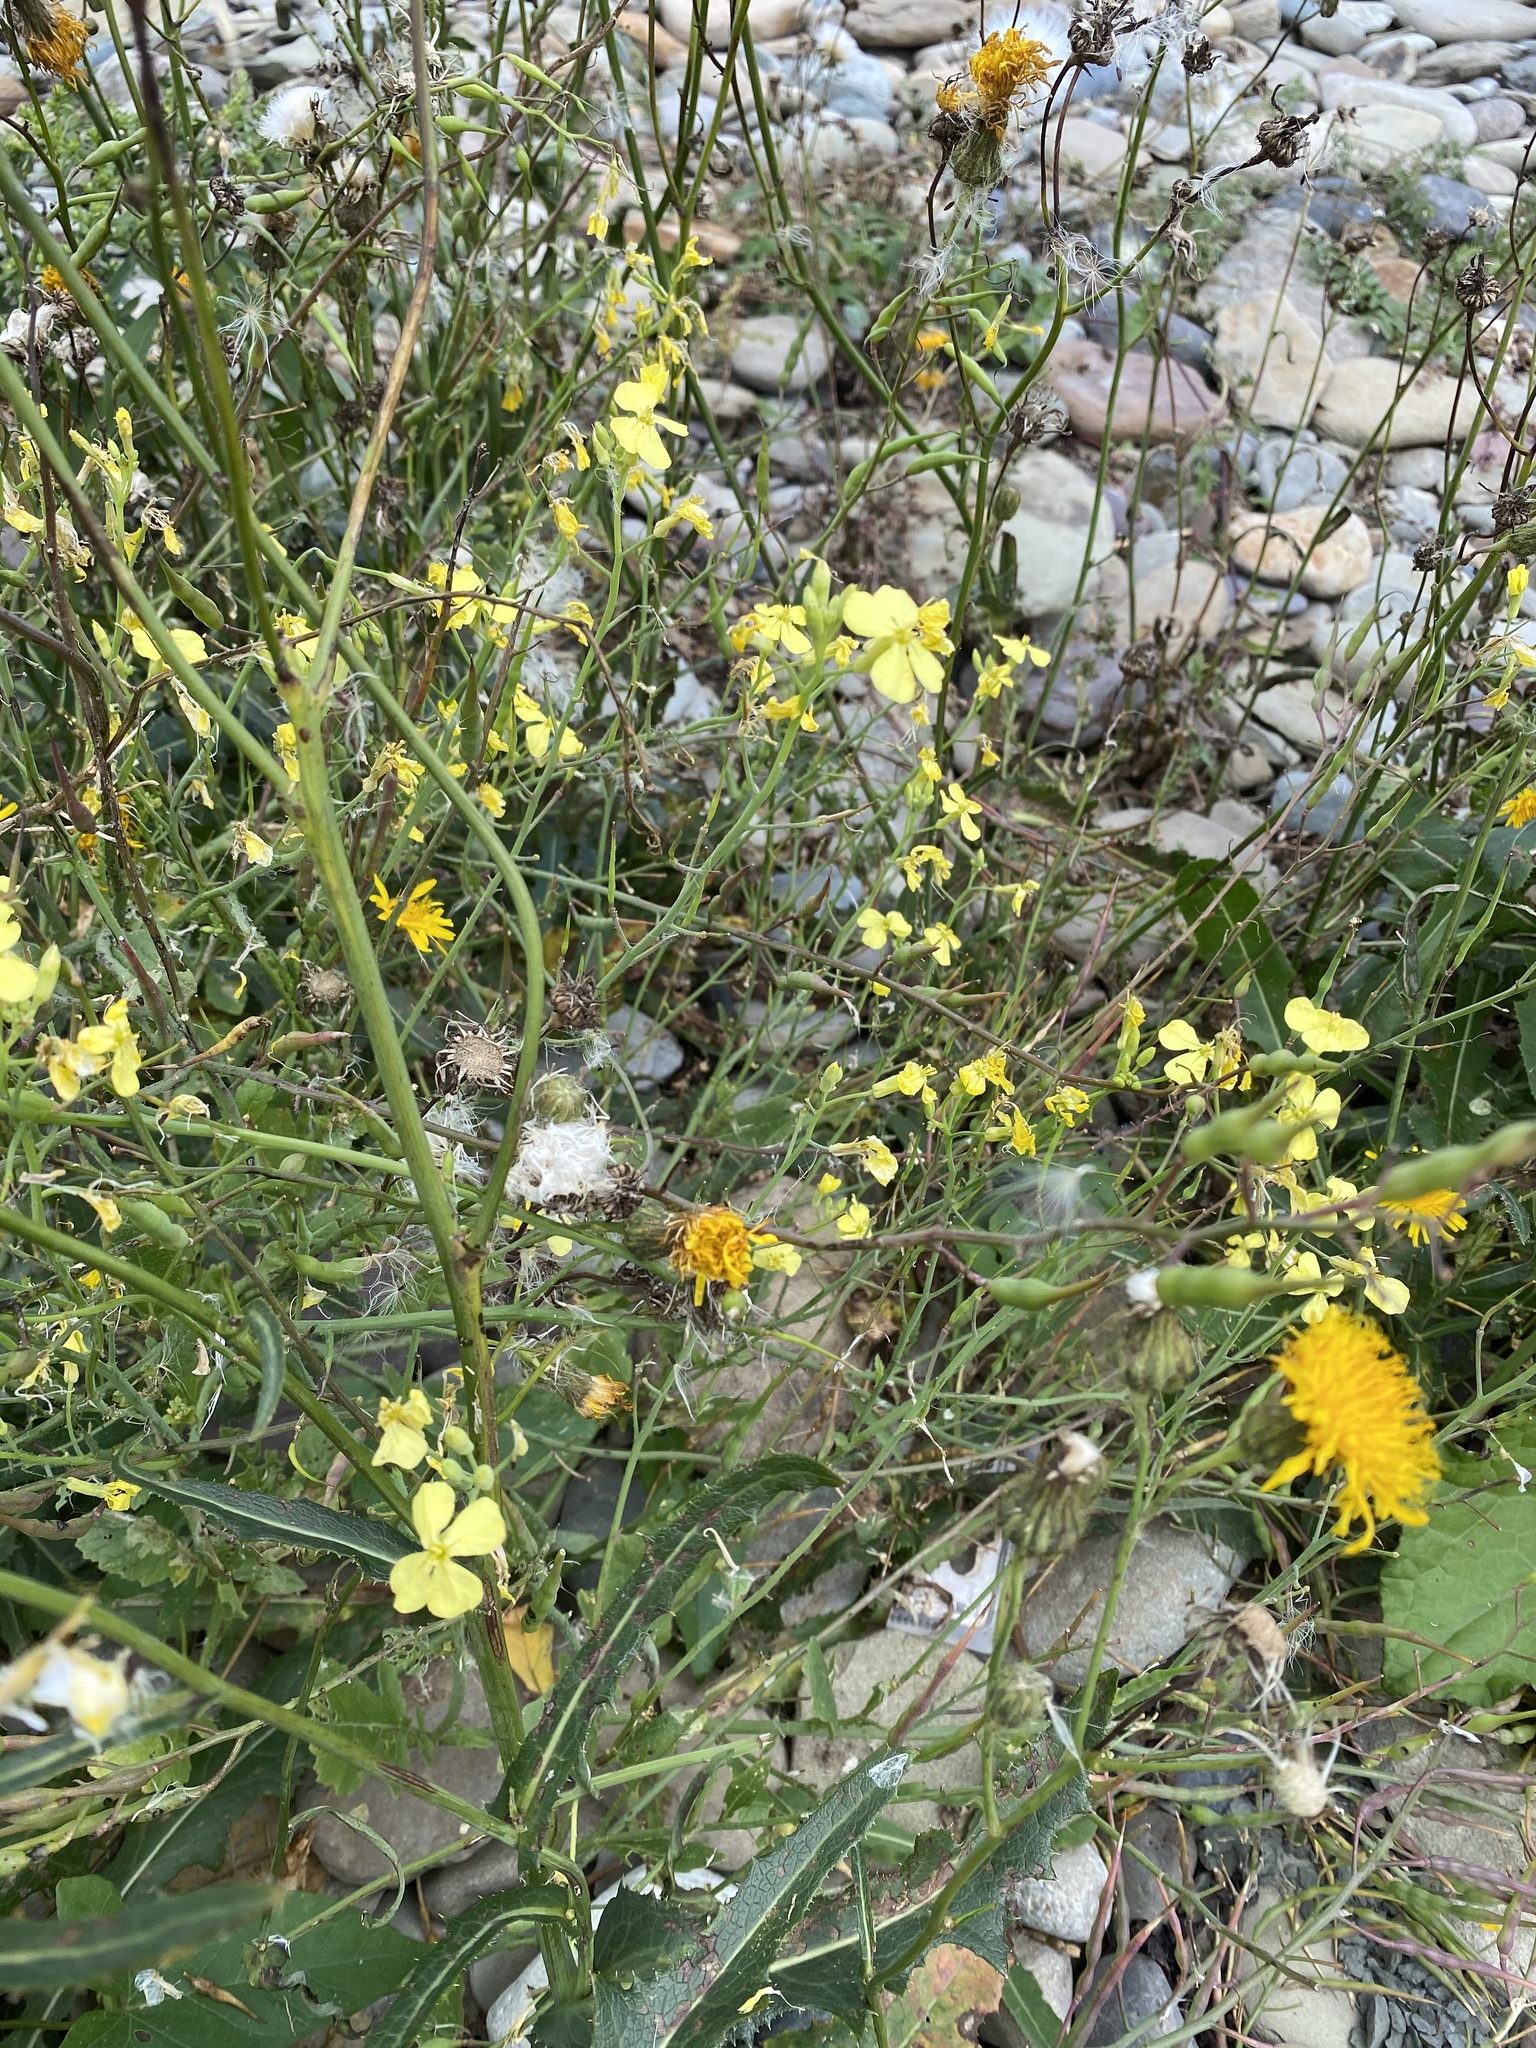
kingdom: Plantae
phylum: Tracheophyta
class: Magnoliopsida
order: Brassicales
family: Brassicaceae
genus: Raphanus
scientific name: Raphanus raphanistrum
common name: Wild radish
